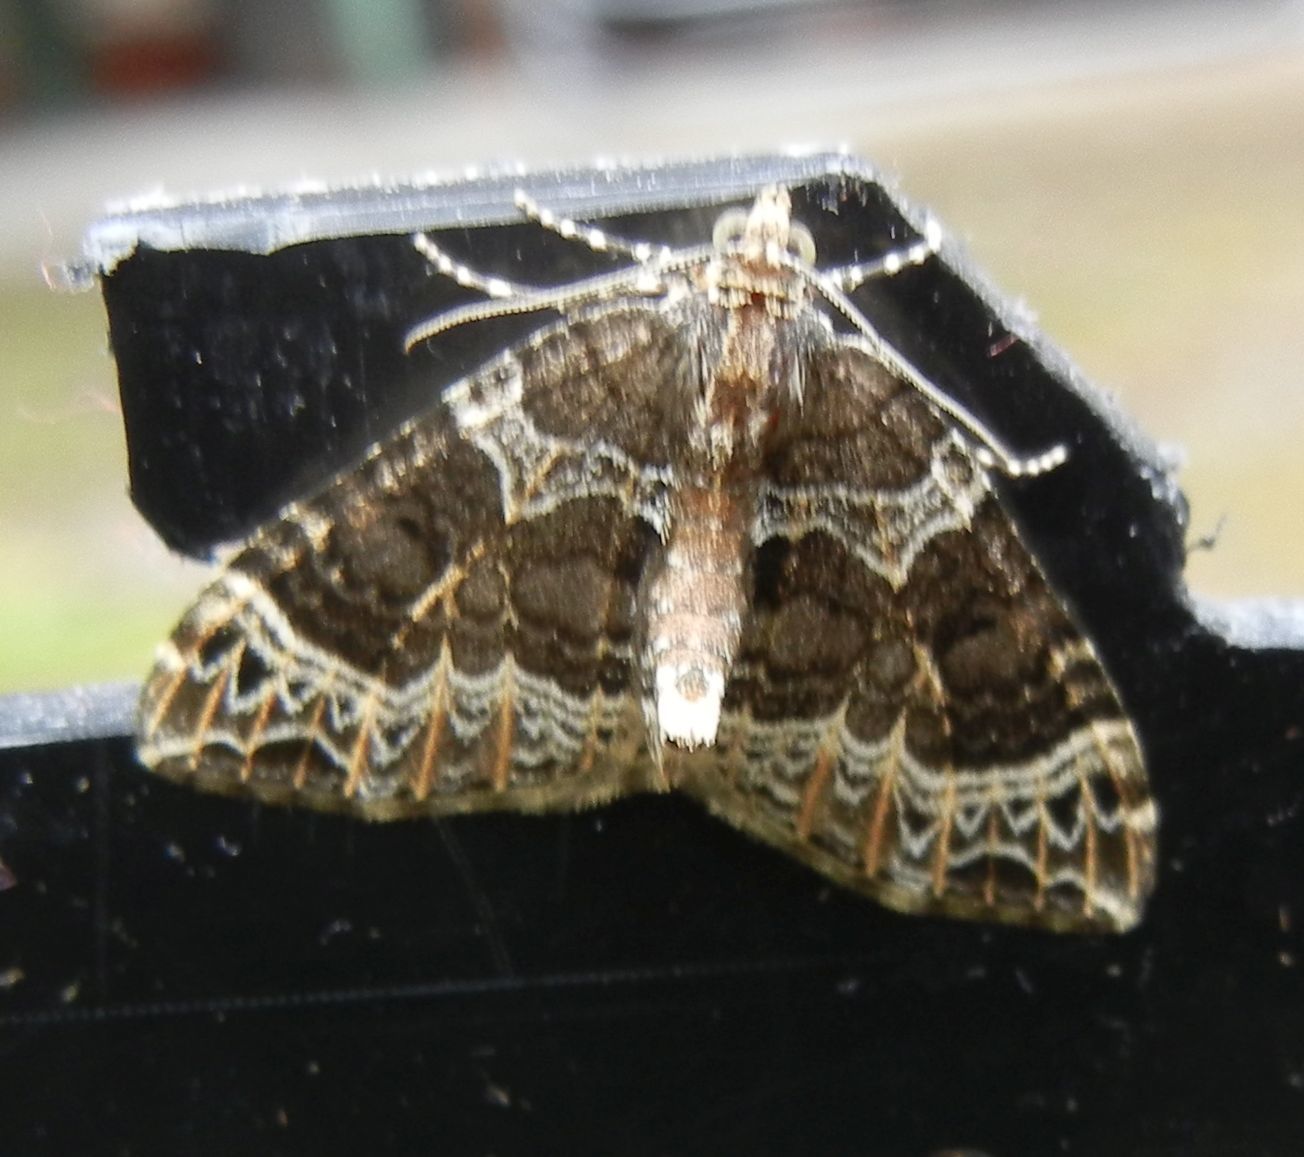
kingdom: Animalia
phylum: Arthropoda
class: Insecta
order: Lepidoptera
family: Geometridae
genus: Ecliptopera
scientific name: Ecliptopera silaceata
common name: Small phoenix
